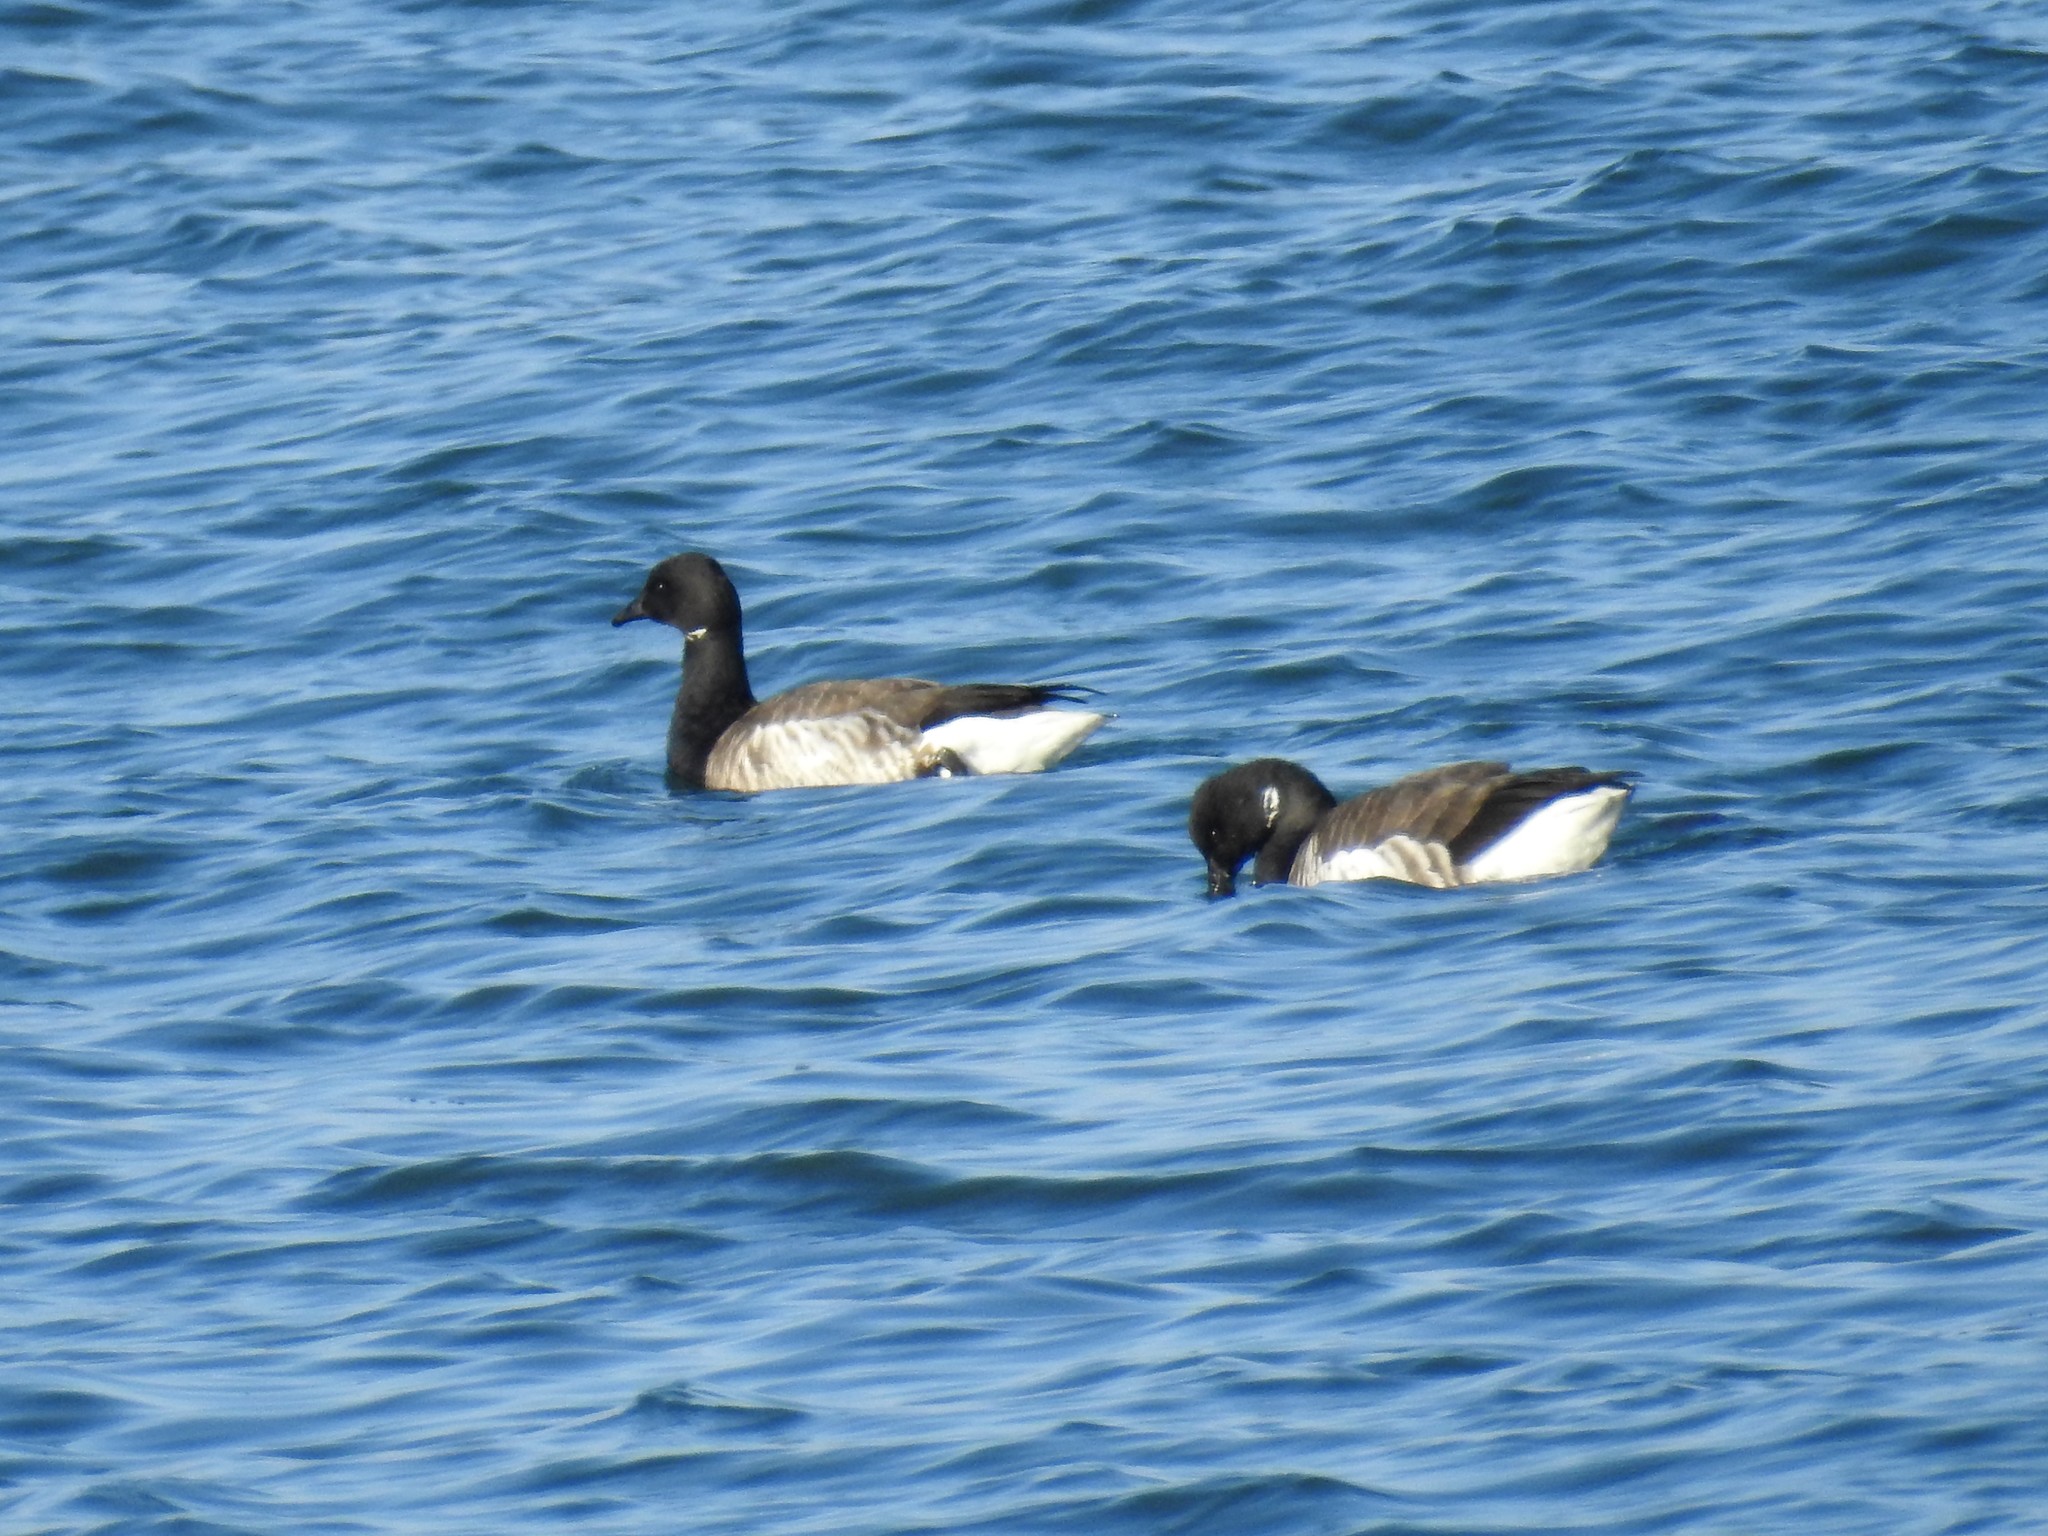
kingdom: Animalia
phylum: Chordata
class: Aves
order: Anseriformes
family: Anatidae
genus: Branta
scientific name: Branta bernicla
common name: Brant goose
